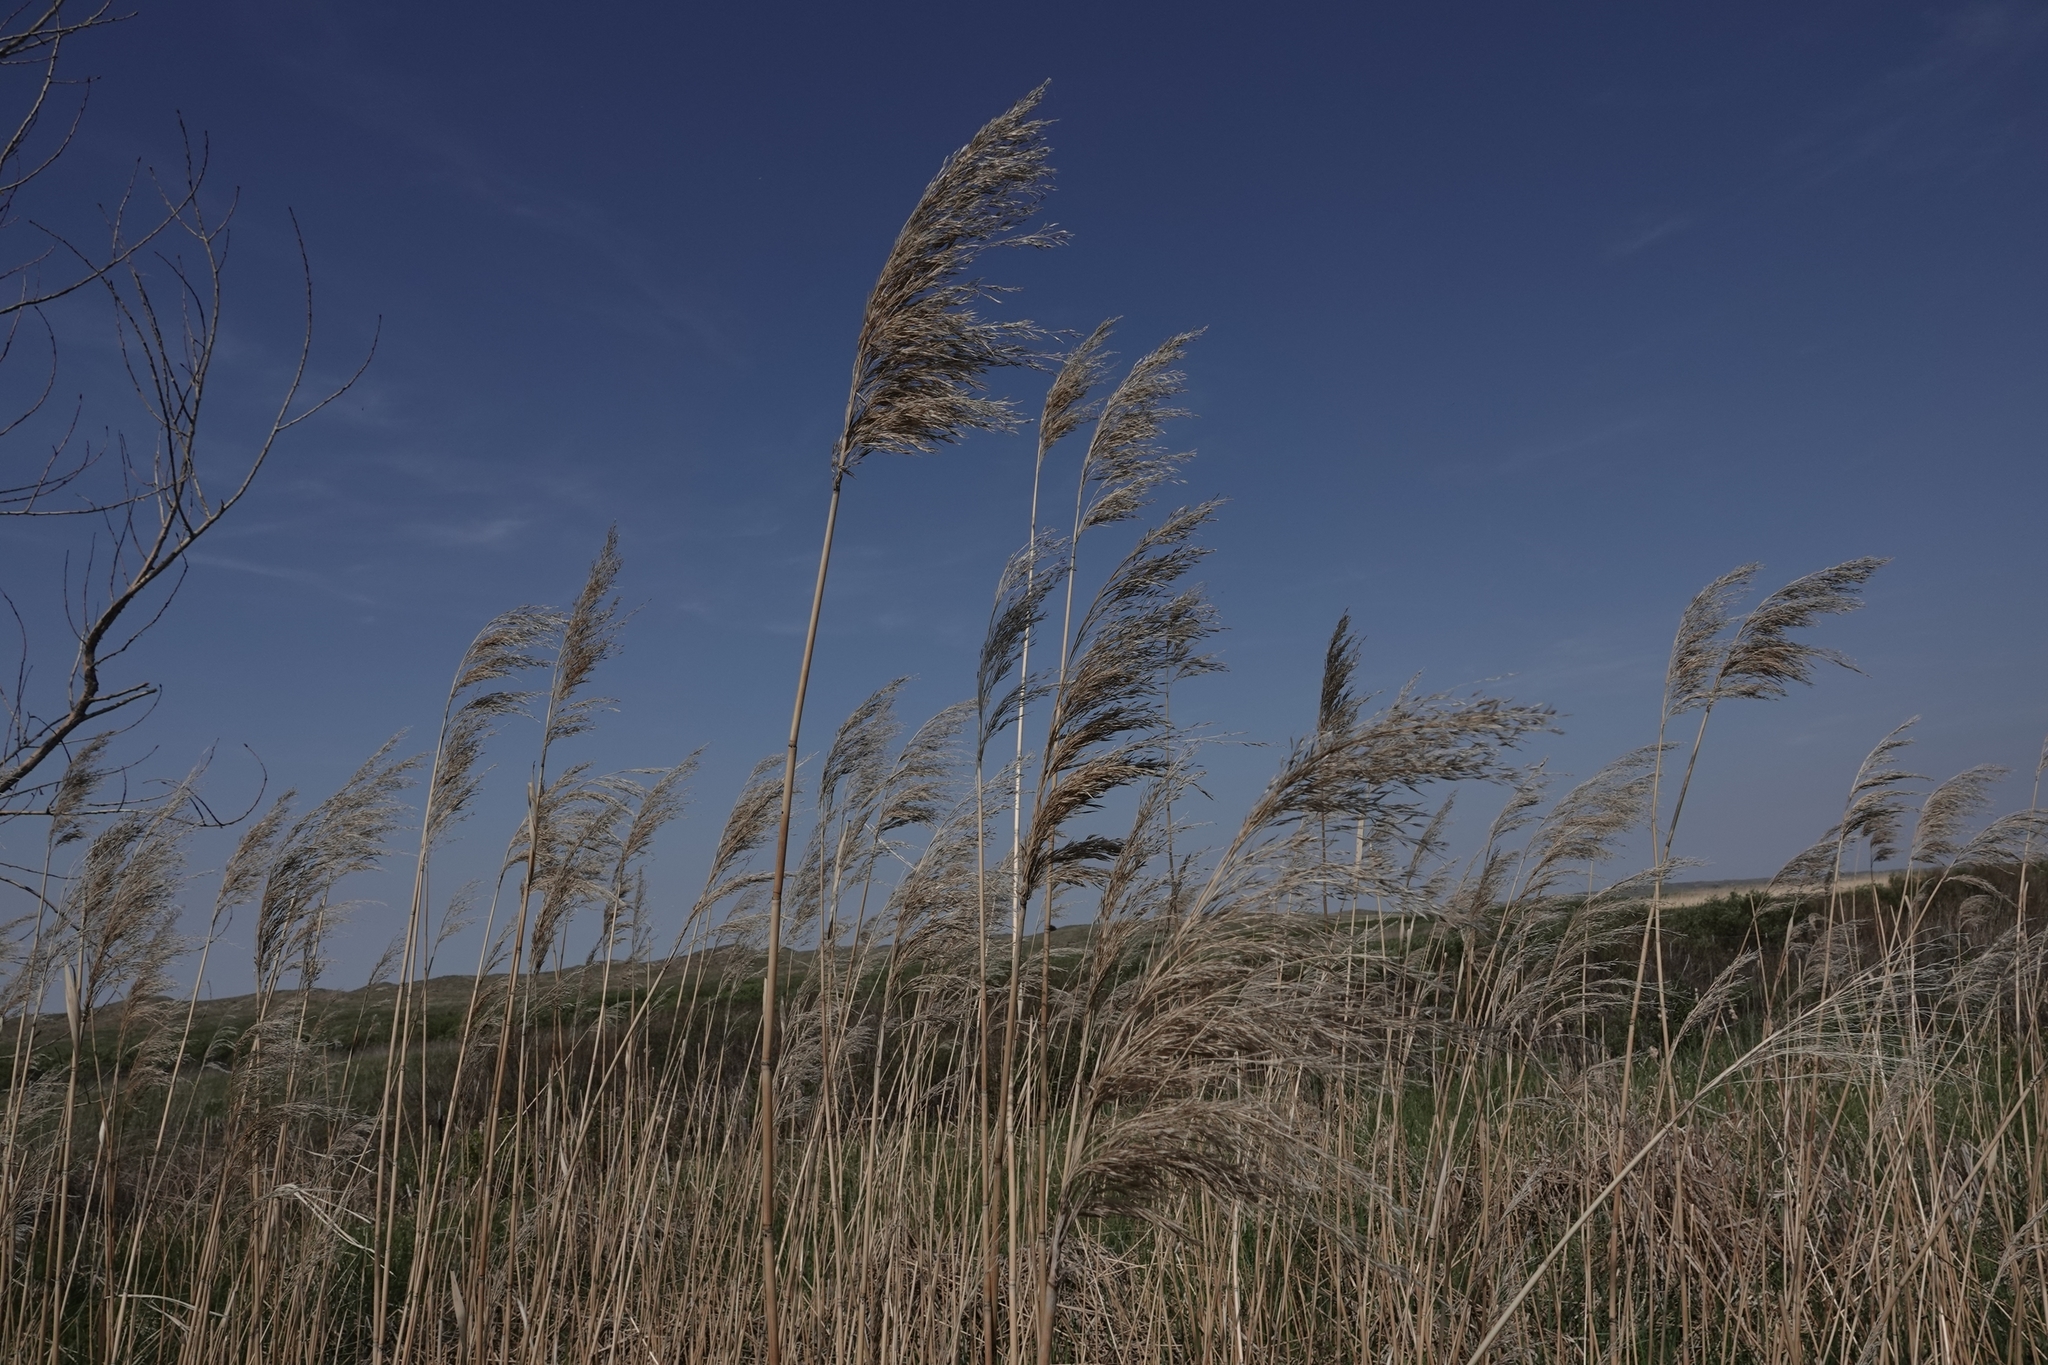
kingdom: Plantae
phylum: Tracheophyta
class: Liliopsida
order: Poales
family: Poaceae
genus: Phragmites
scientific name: Phragmites australis
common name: Common reed
